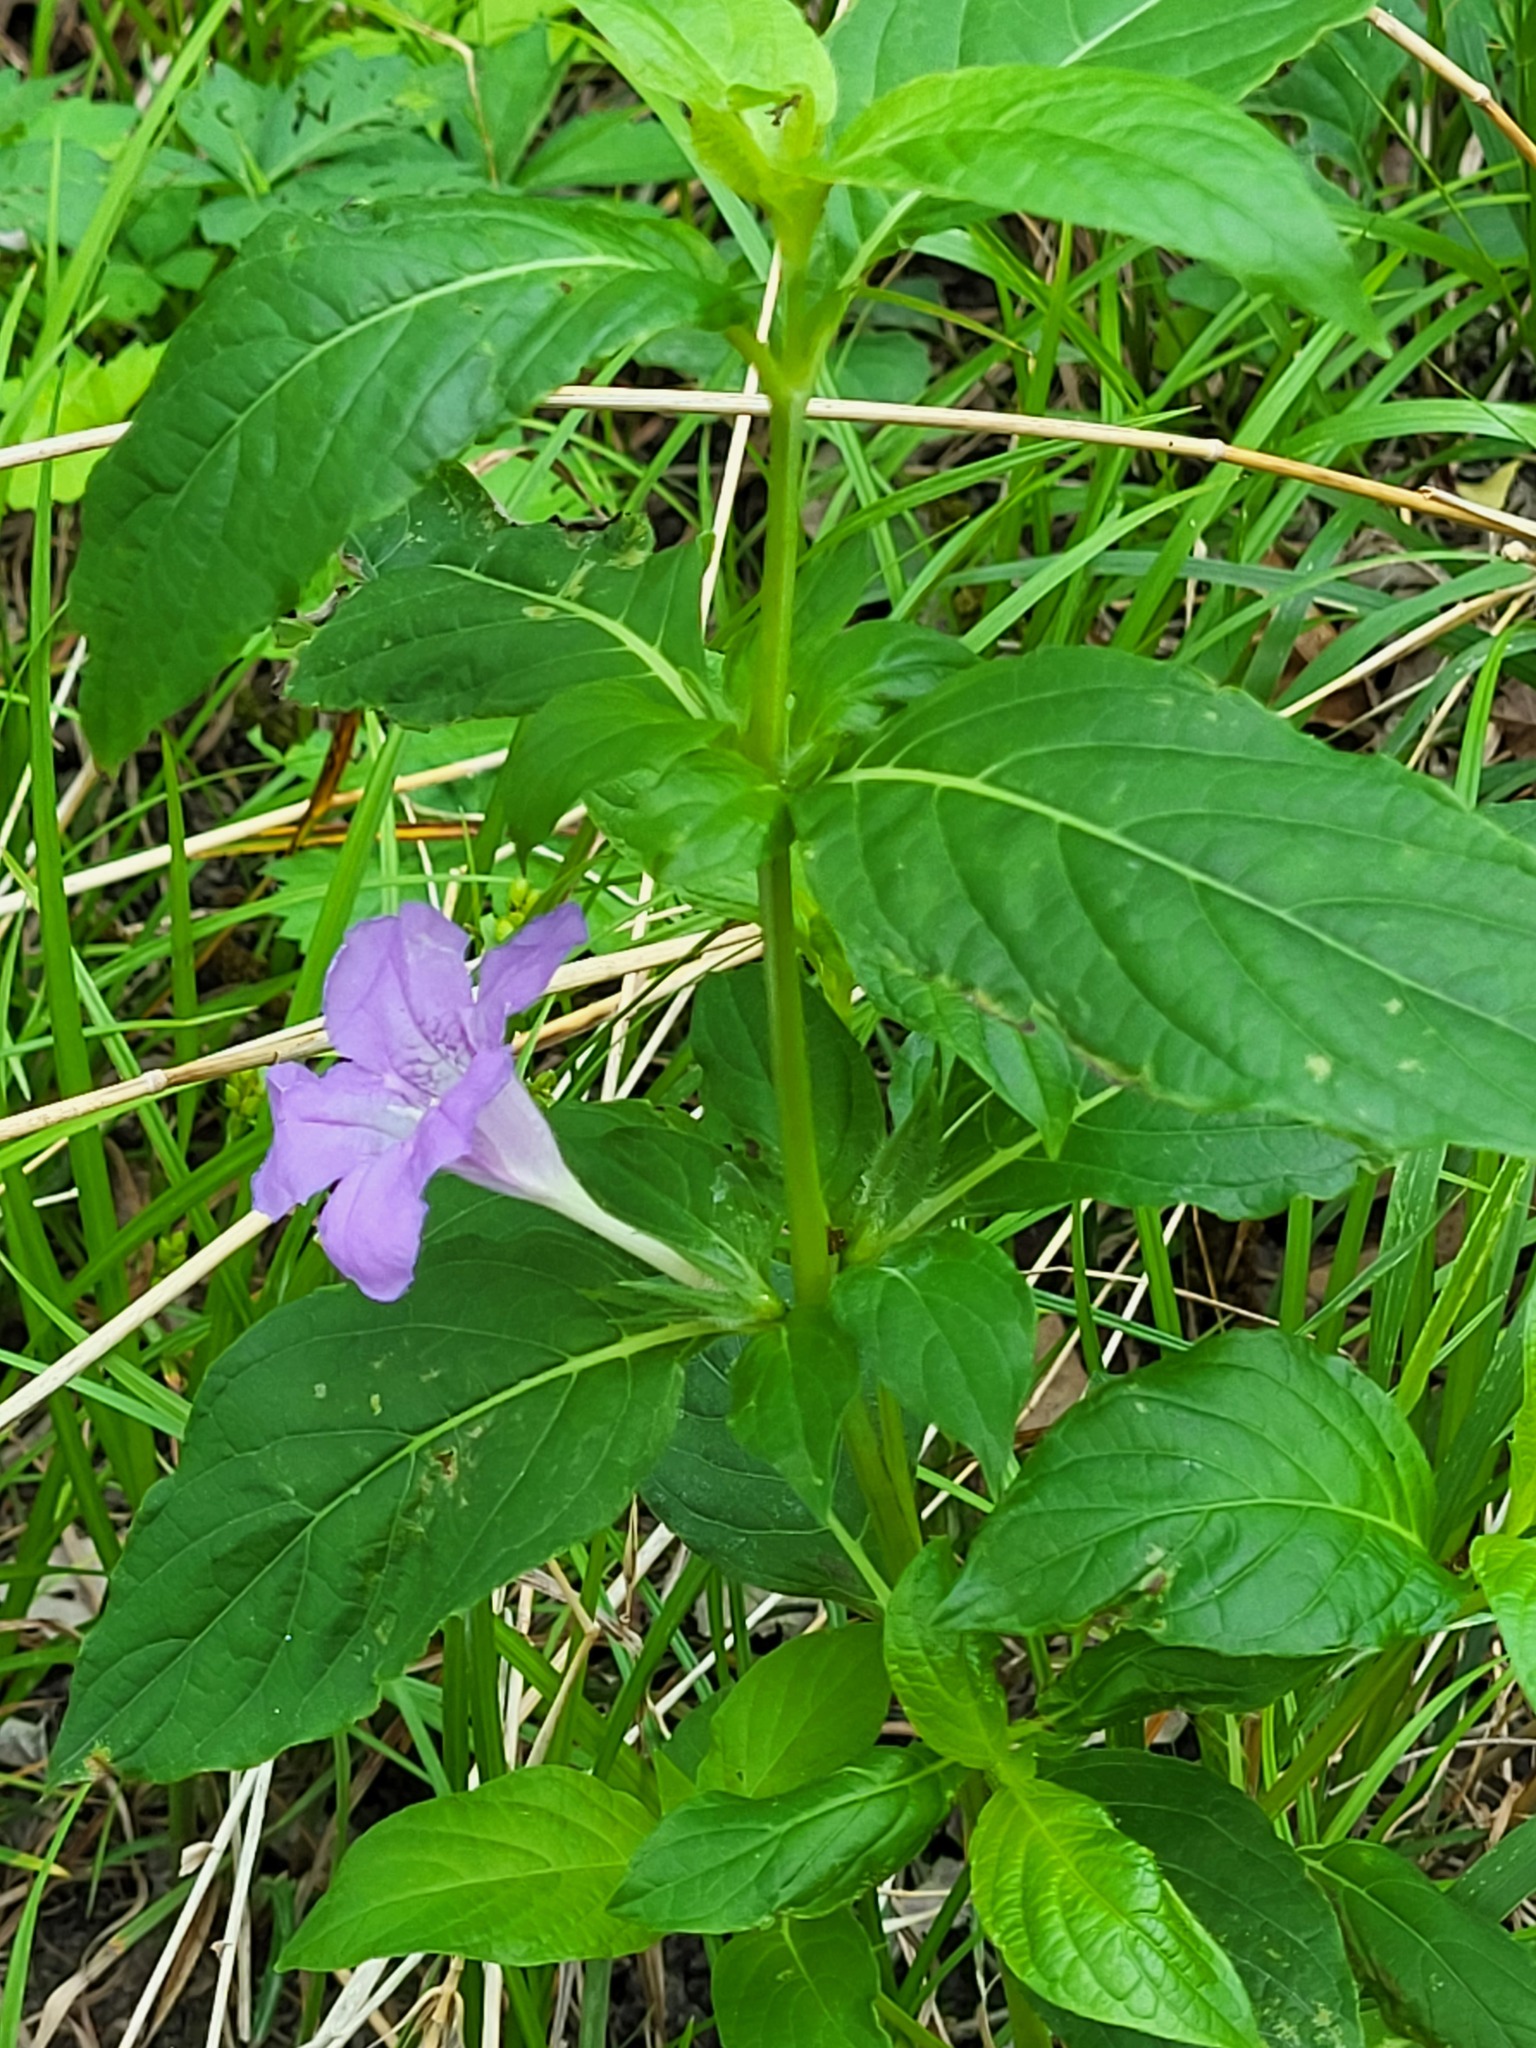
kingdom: Plantae
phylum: Tracheophyta
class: Magnoliopsida
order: Lamiales
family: Acanthaceae
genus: Ruellia
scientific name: Ruellia strepens
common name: Limestone wild petunia
